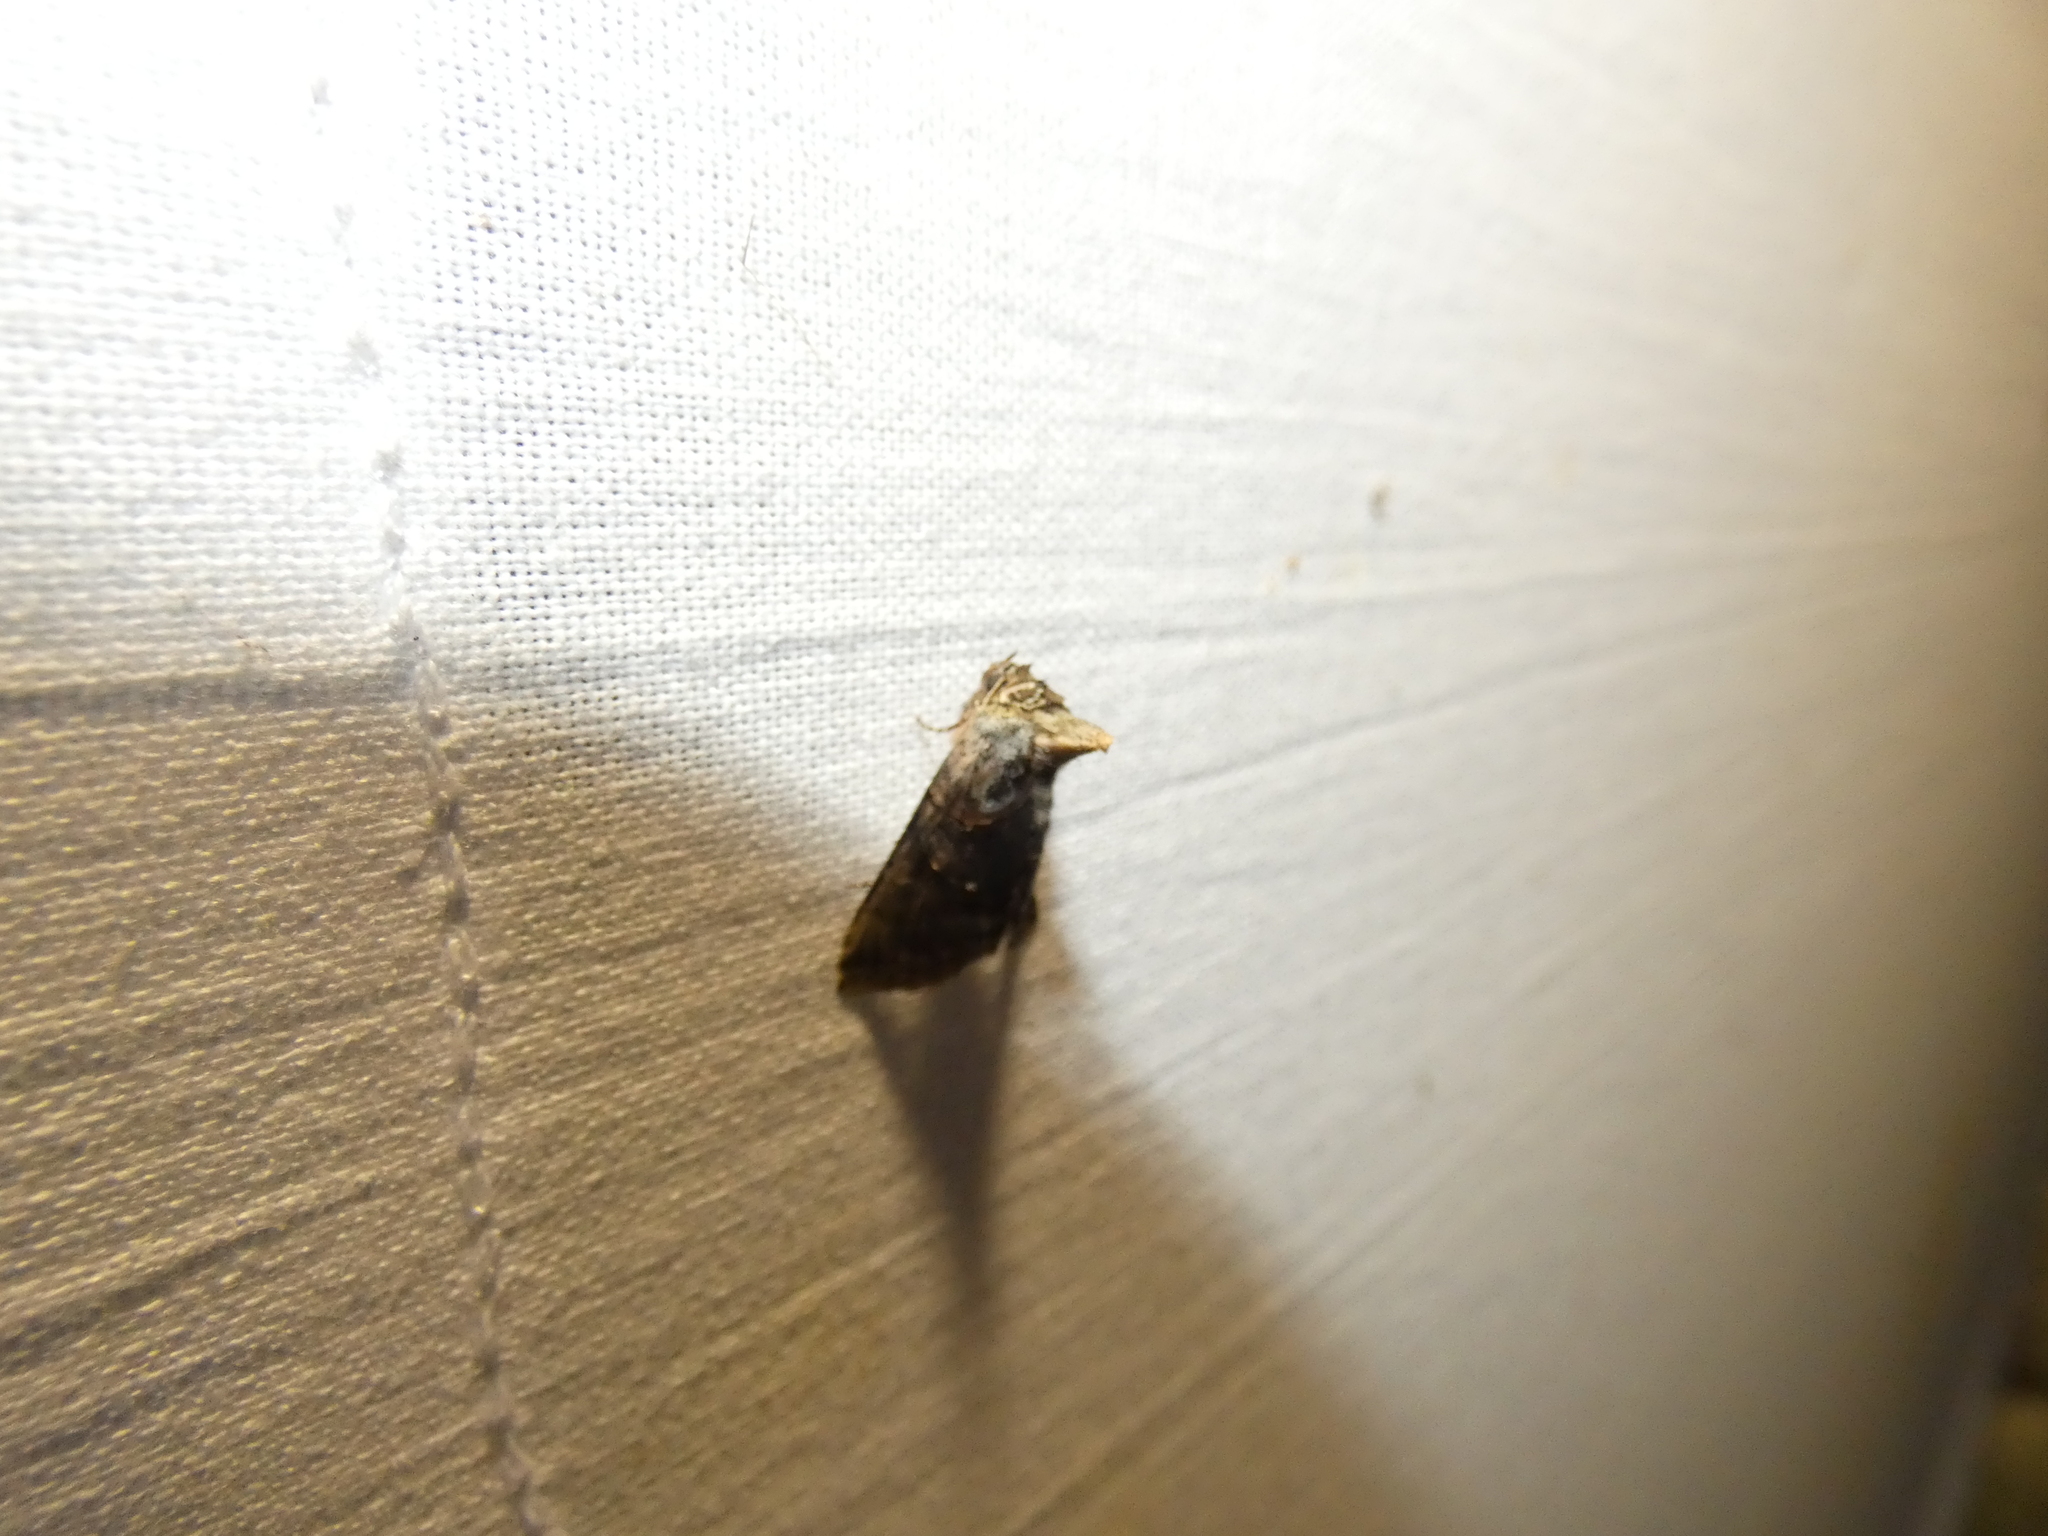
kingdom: Animalia
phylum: Arthropoda
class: Insecta
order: Lepidoptera
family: Noctuidae
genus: Abrostola
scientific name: Abrostola tripartita
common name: Spectacle
